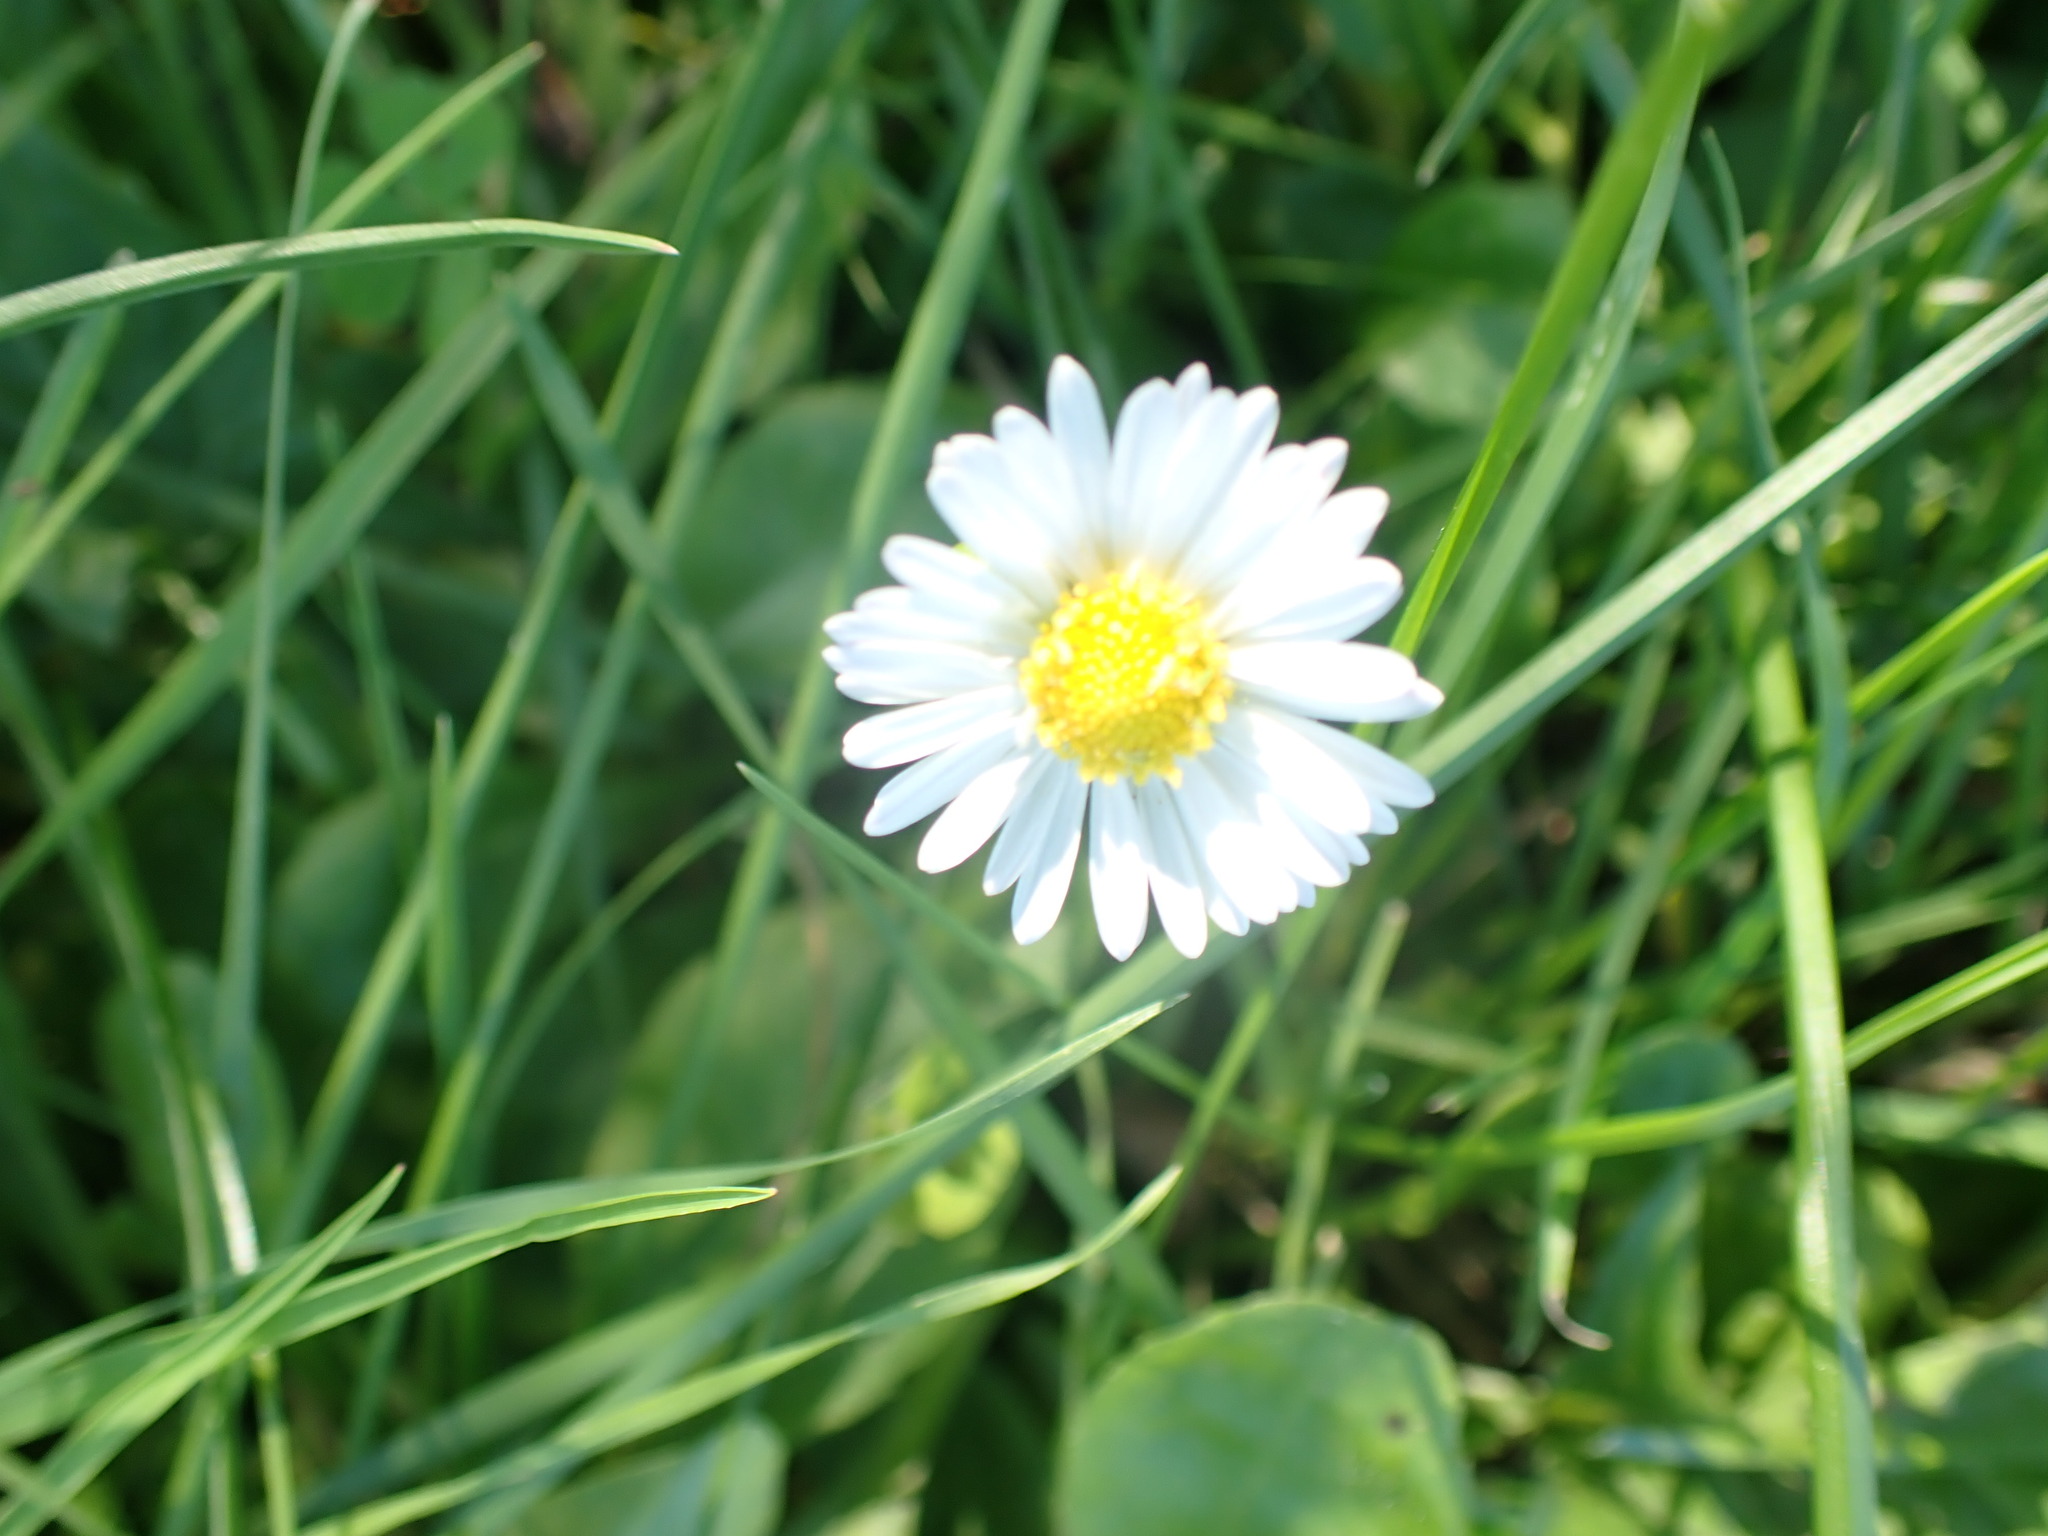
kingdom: Plantae
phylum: Tracheophyta
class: Magnoliopsida
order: Asterales
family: Asteraceae
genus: Bellis
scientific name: Bellis perennis
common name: Lawndaisy
